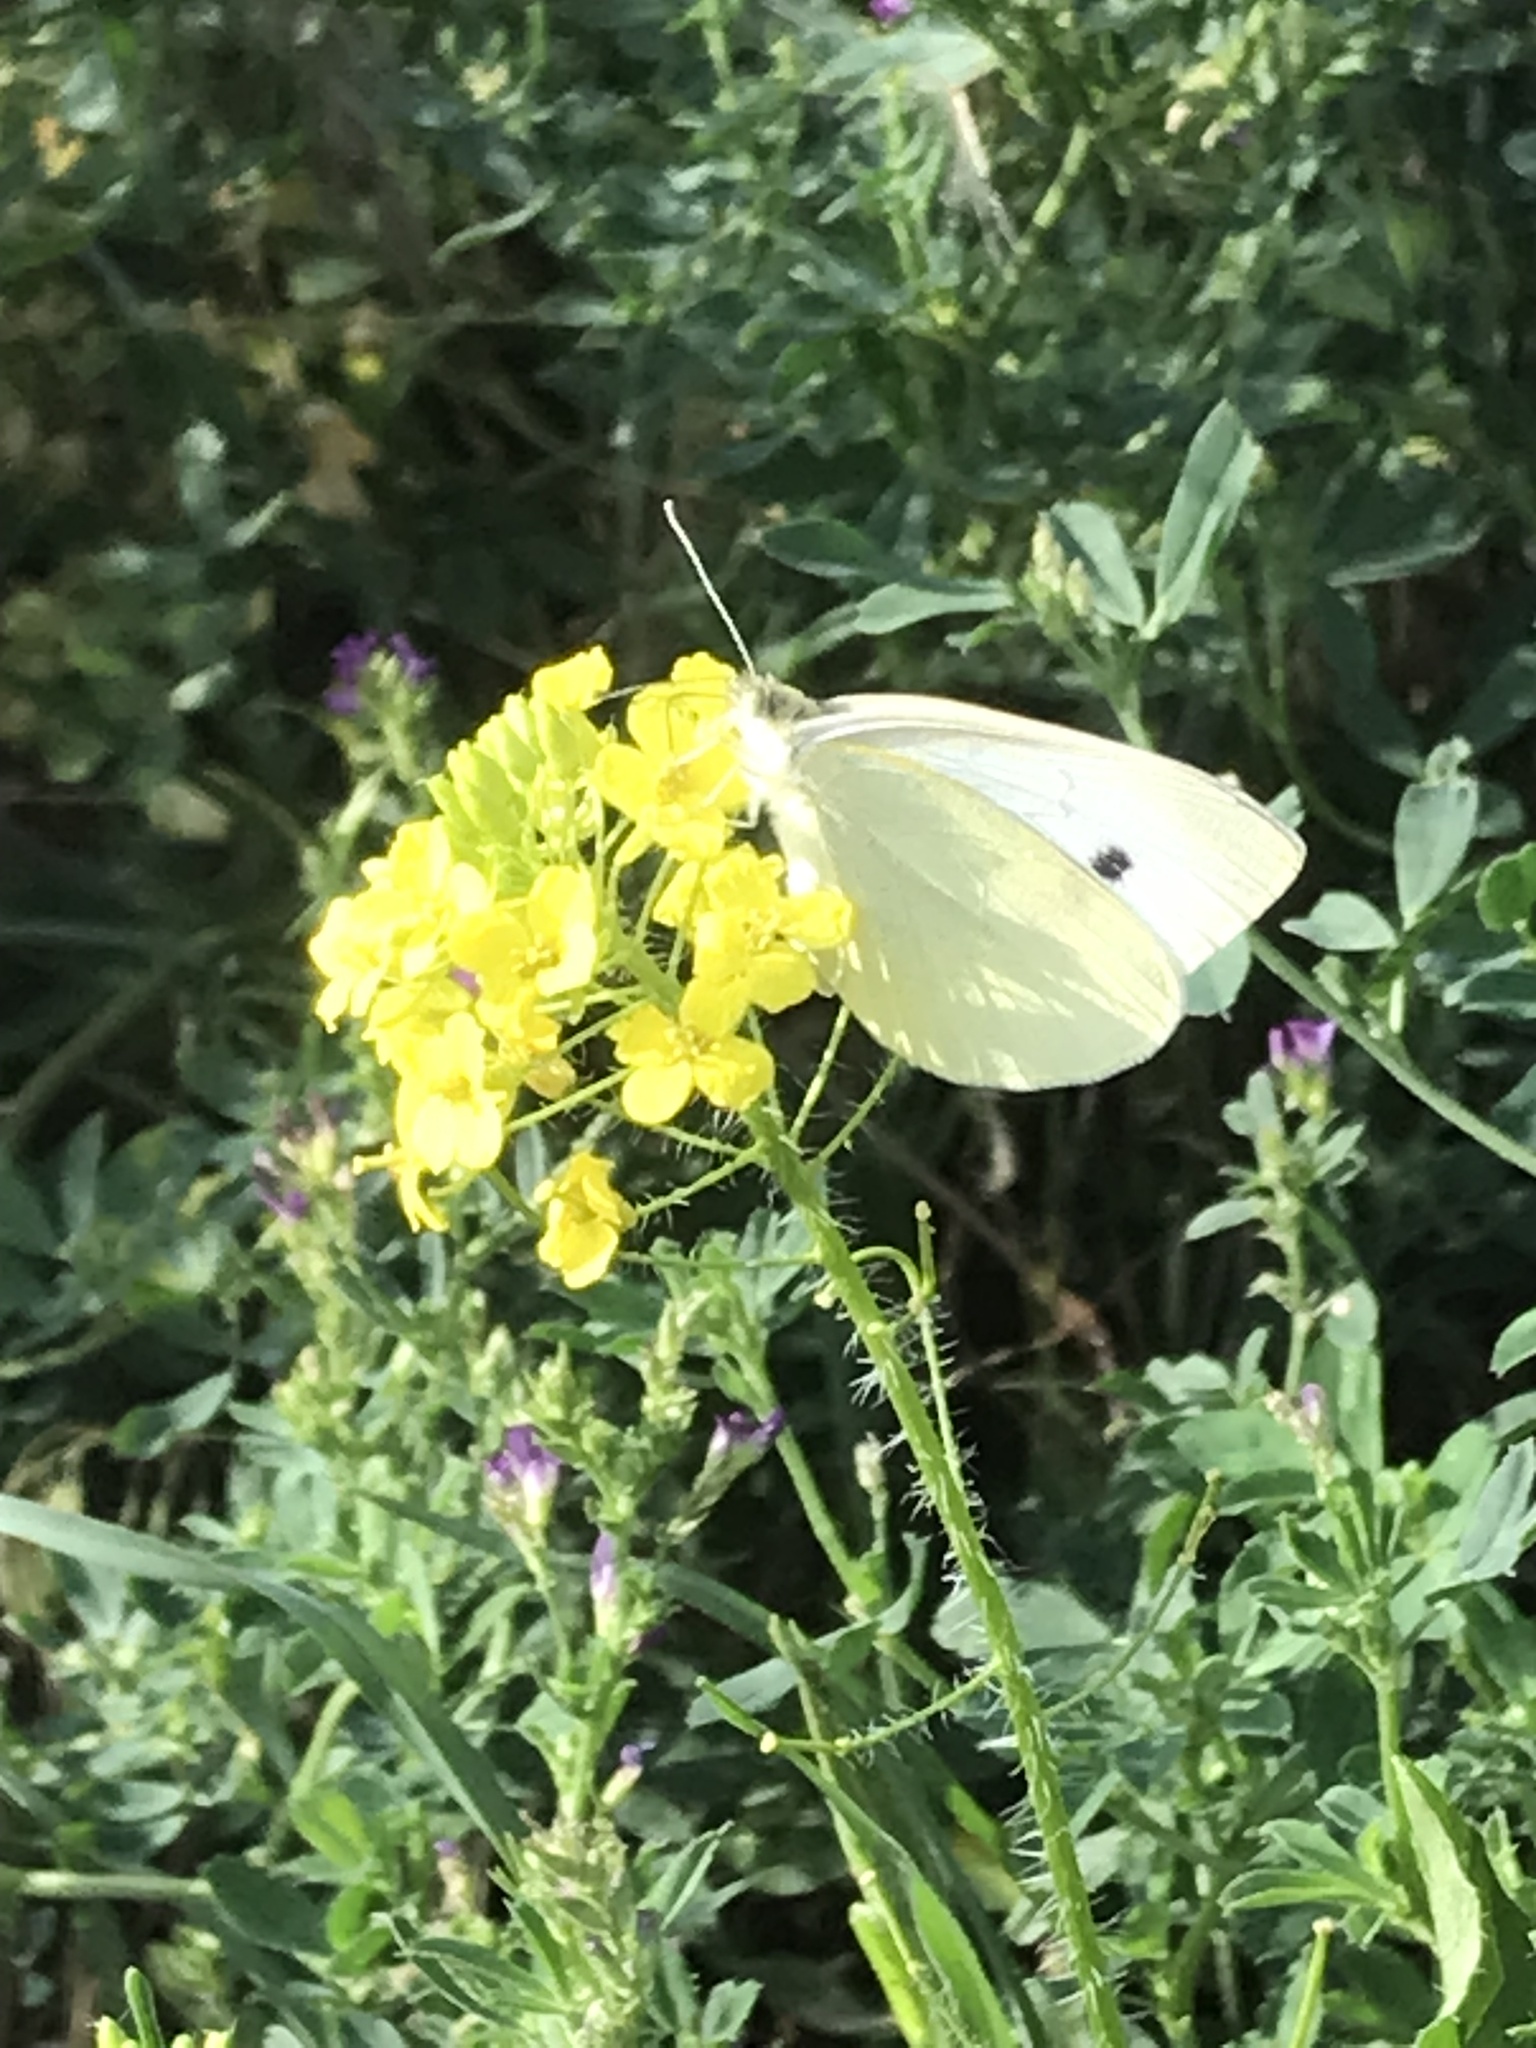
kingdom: Animalia
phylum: Arthropoda
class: Insecta
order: Lepidoptera
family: Pieridae
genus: Pieris
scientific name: Pieris rapae
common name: Small white
